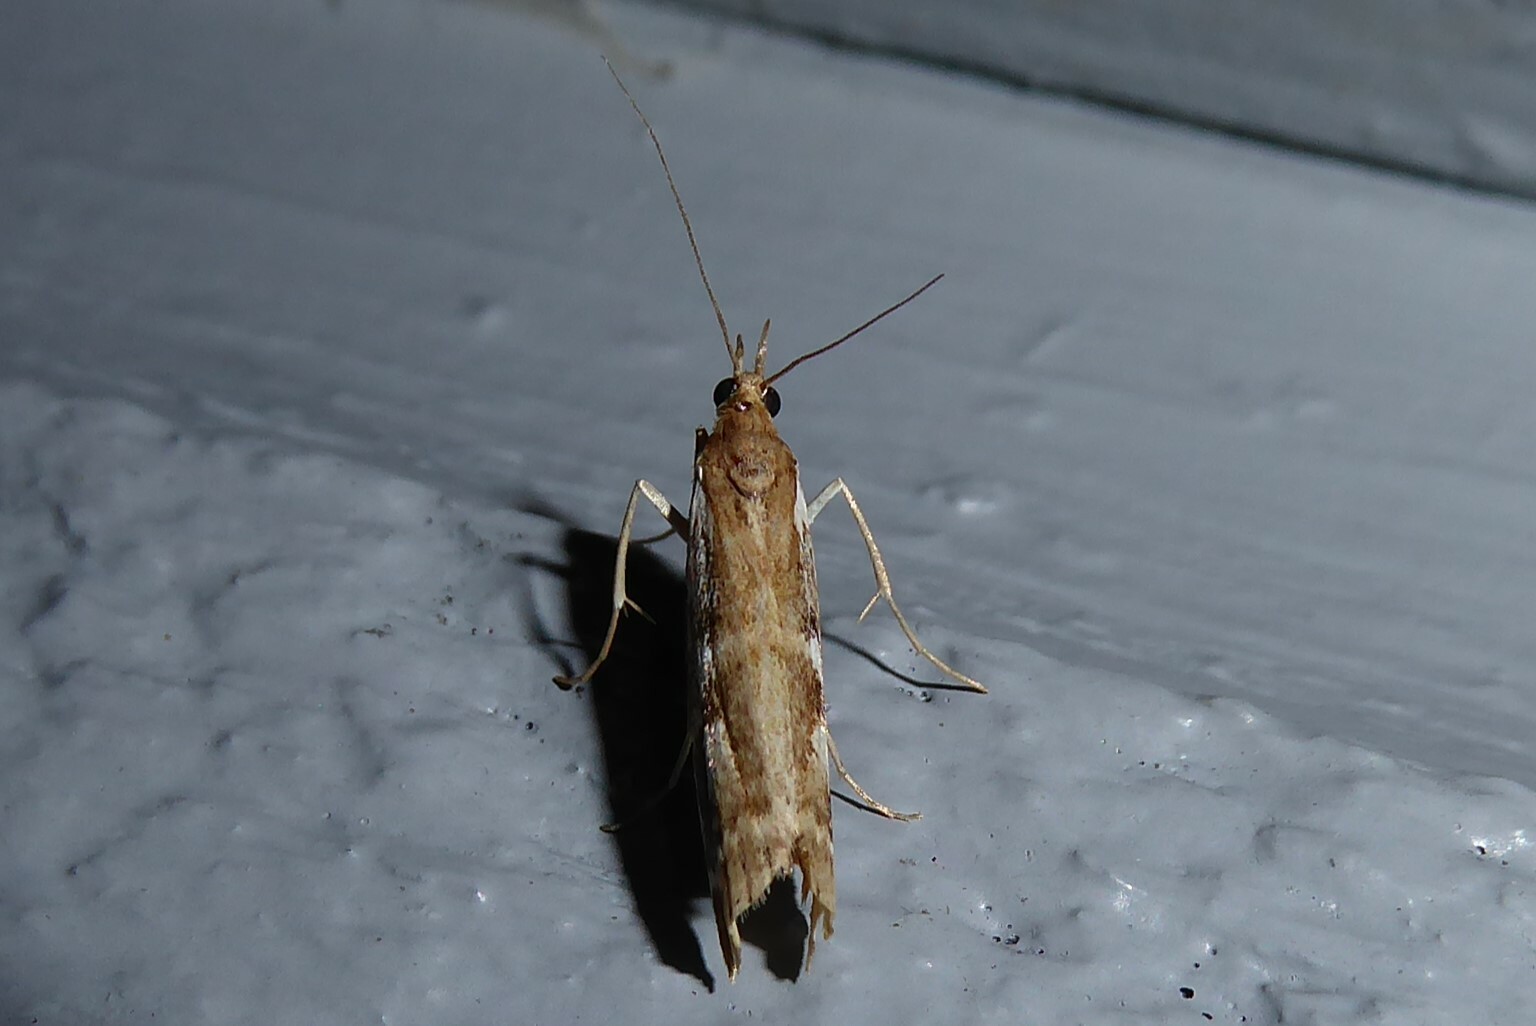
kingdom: Animalia
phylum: Arthropoda
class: Insecta
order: Lepidoptera
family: Crambidae
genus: Orocrambus
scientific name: Orocrambus vulgaris
